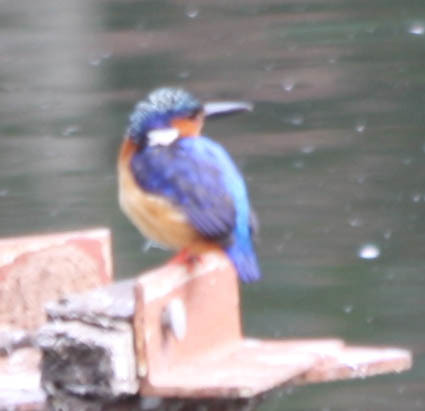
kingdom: Animalia
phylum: Chordata
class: Aves
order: Coraciiformes
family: Alcedinidae
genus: Corythornis
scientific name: Corythornis vintsioides
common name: Malagasy kingfisher
